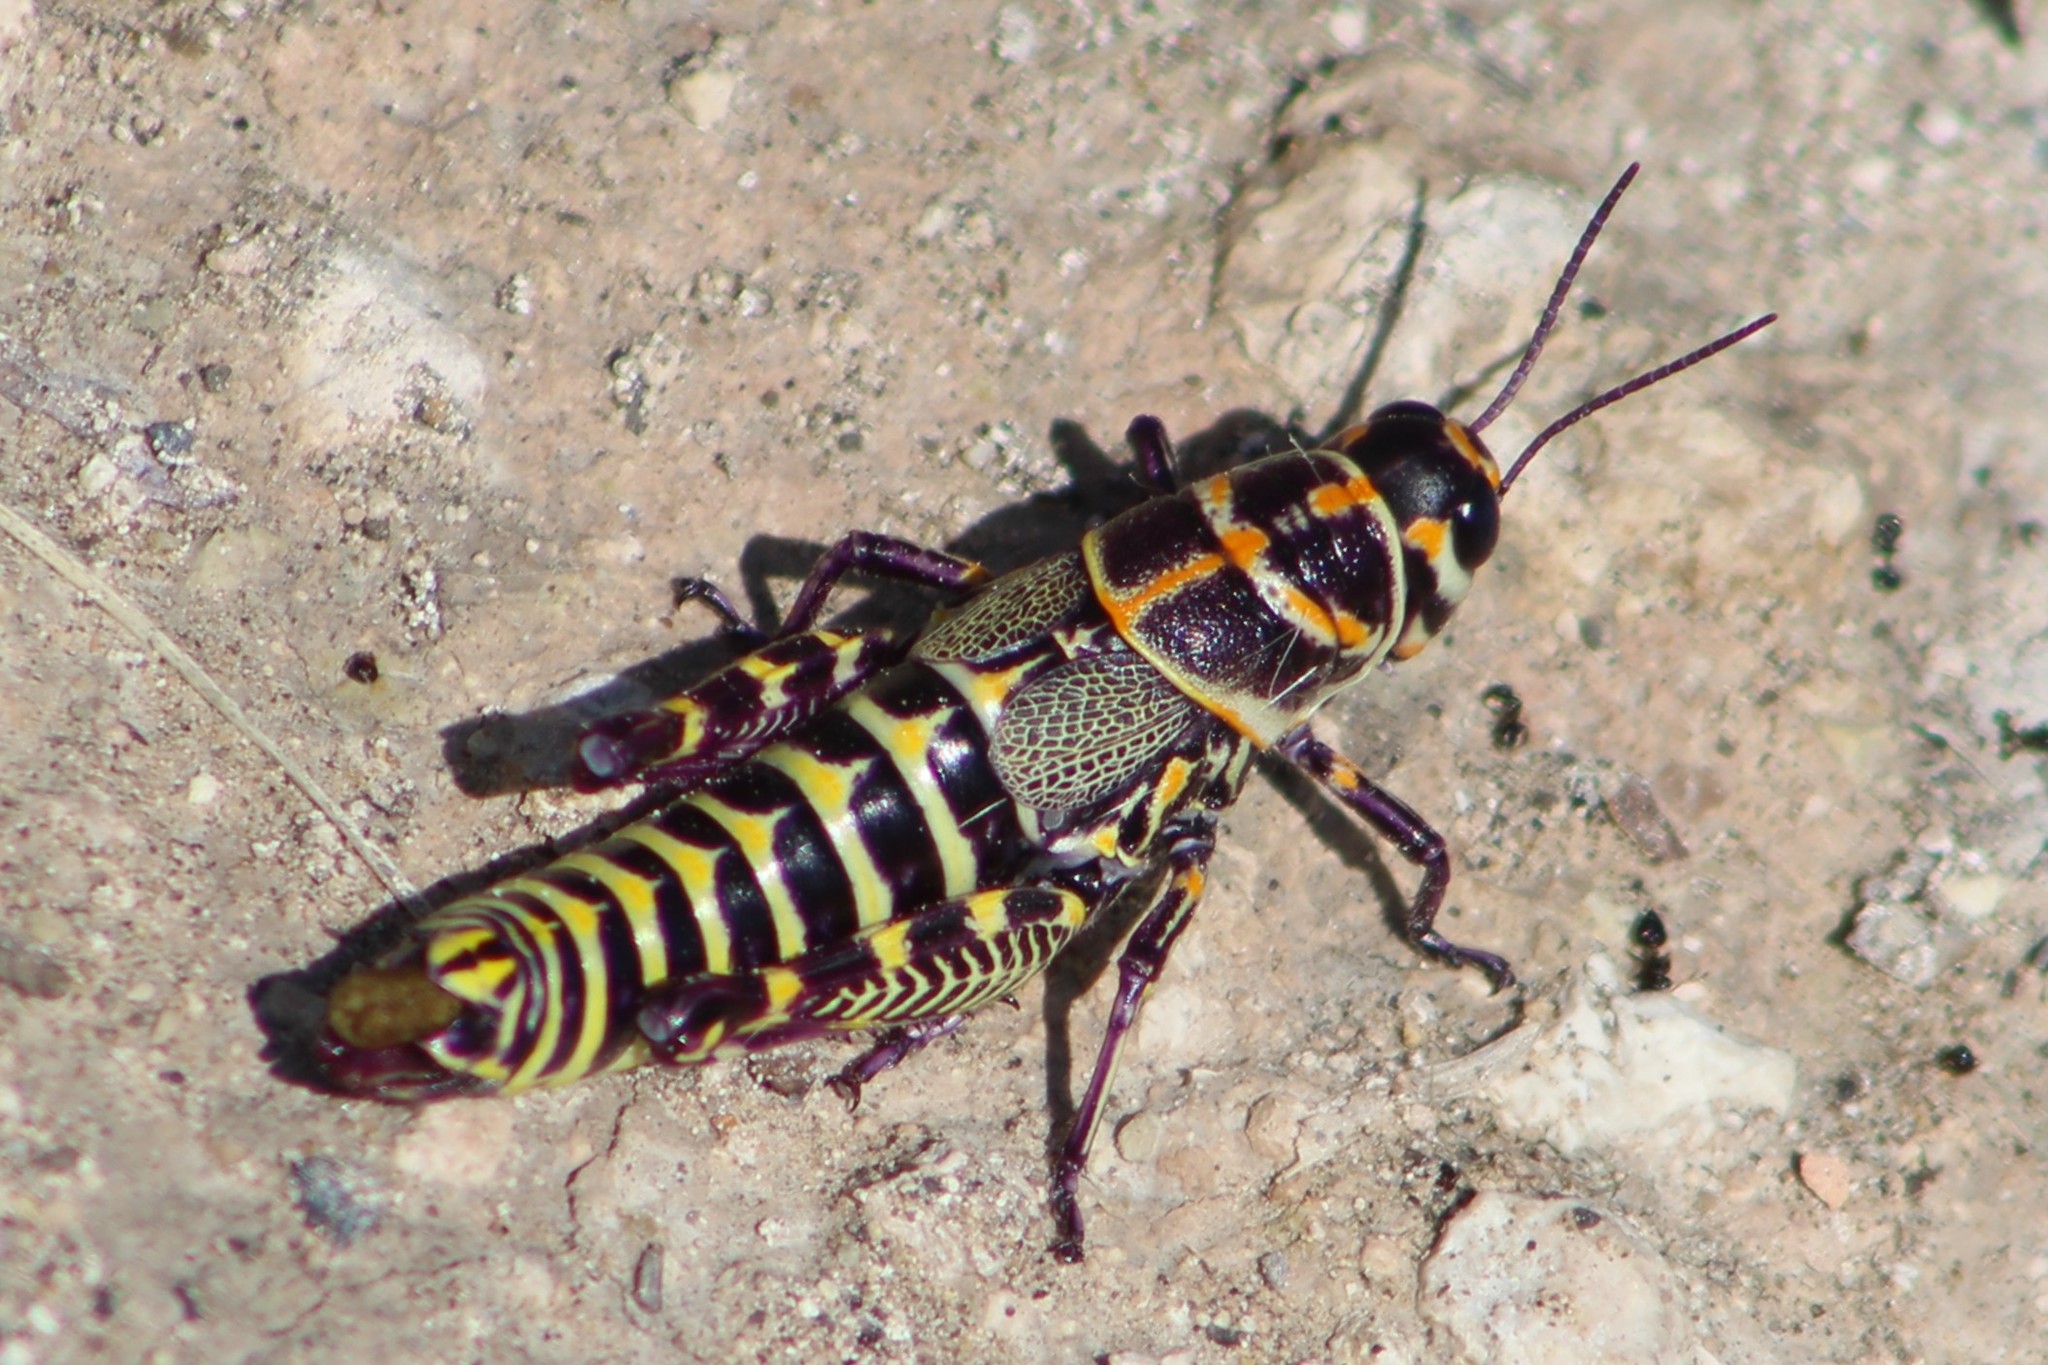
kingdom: Animalia
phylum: Arthropoda
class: Insecta
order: Orthoptera
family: Acrididae
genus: Dactylotum
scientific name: Dactylotum bicolor
